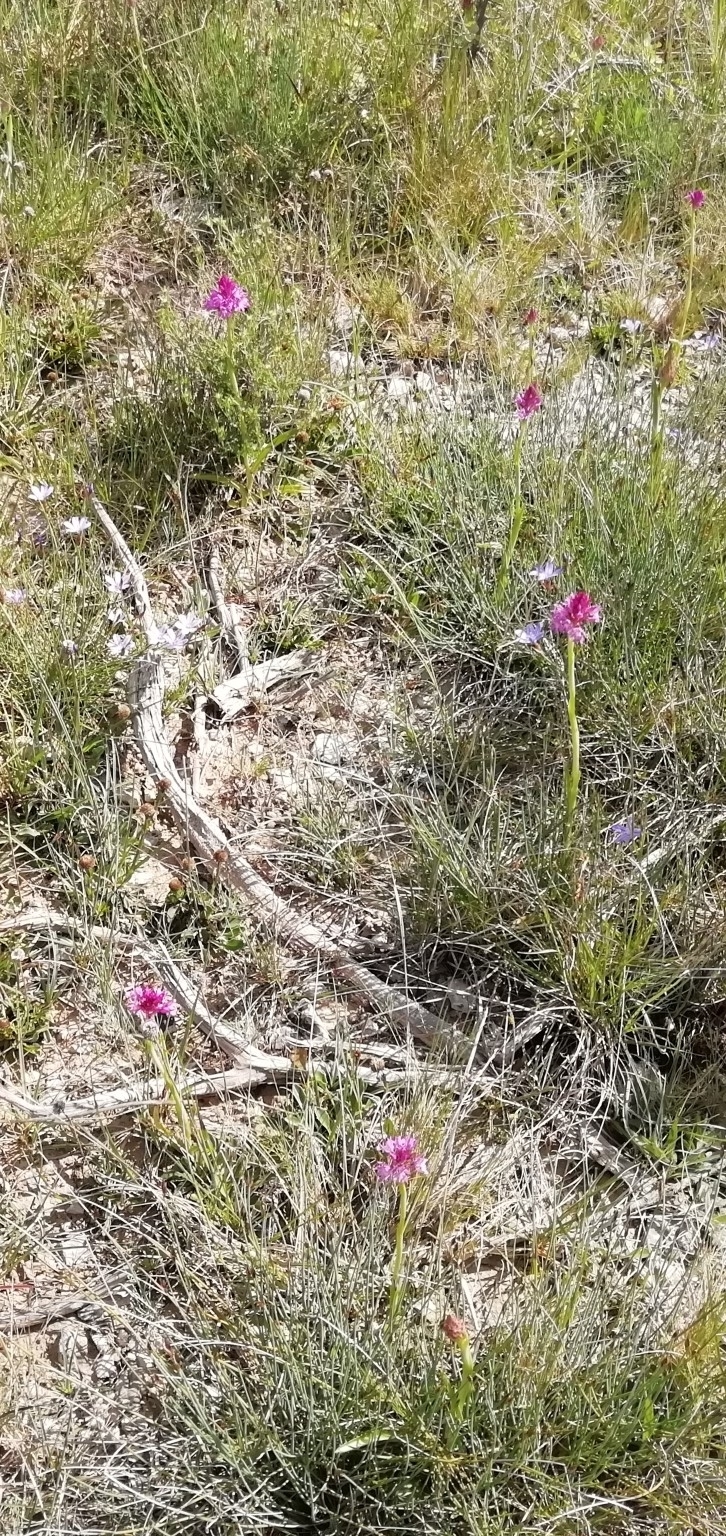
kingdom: Plantae
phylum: Tracheophyta
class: Liliopsida
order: Asparagales
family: Orchidaceae
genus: Anacamptis
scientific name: Anacamptis pyramidalis
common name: Pyramidal orchid
